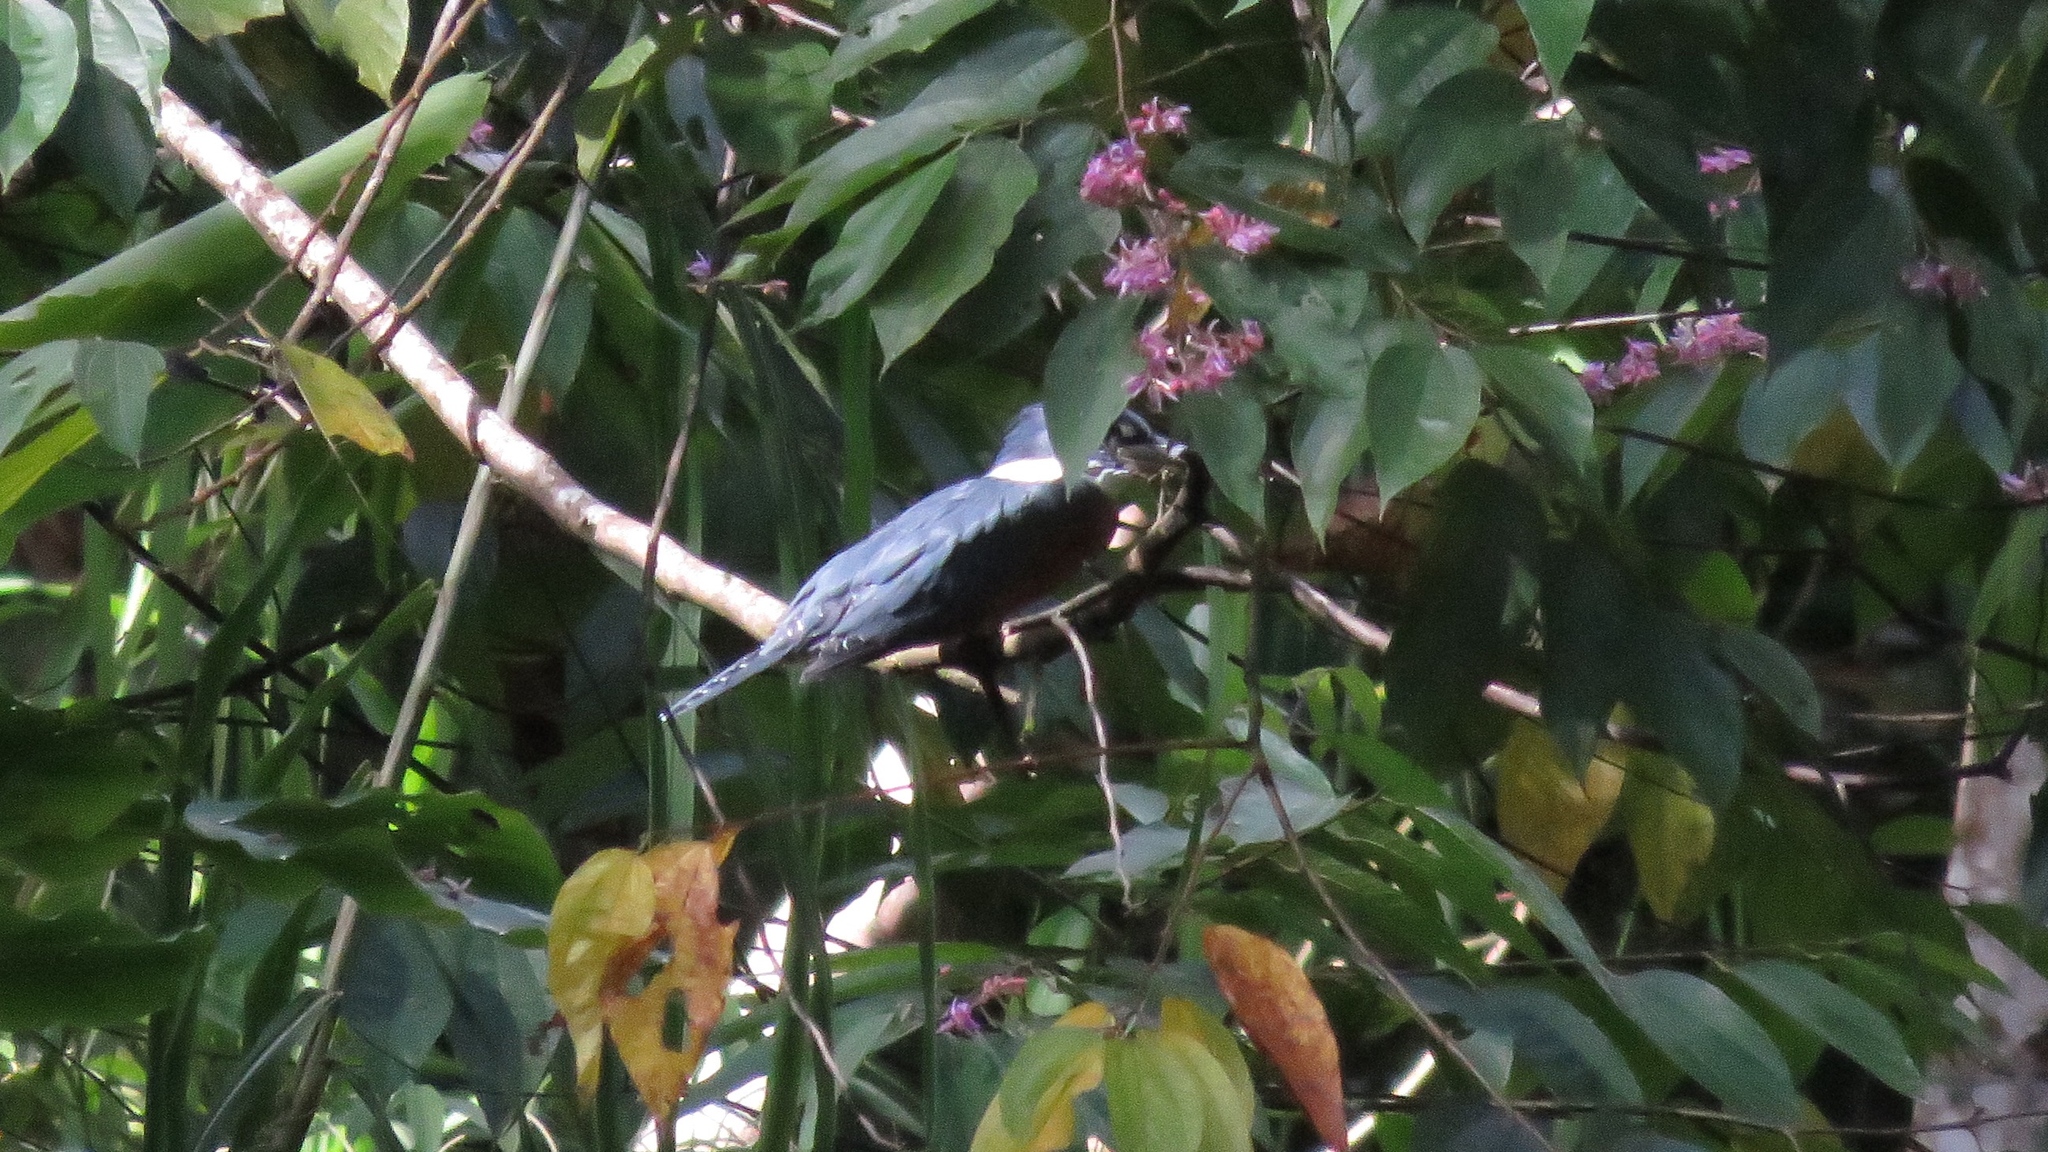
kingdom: Animalia
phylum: Chordata
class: Aves
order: Coraciiformes
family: Alcedinidae
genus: Megaceryle
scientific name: Megaceryle torquata
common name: Ringed kingfisher
